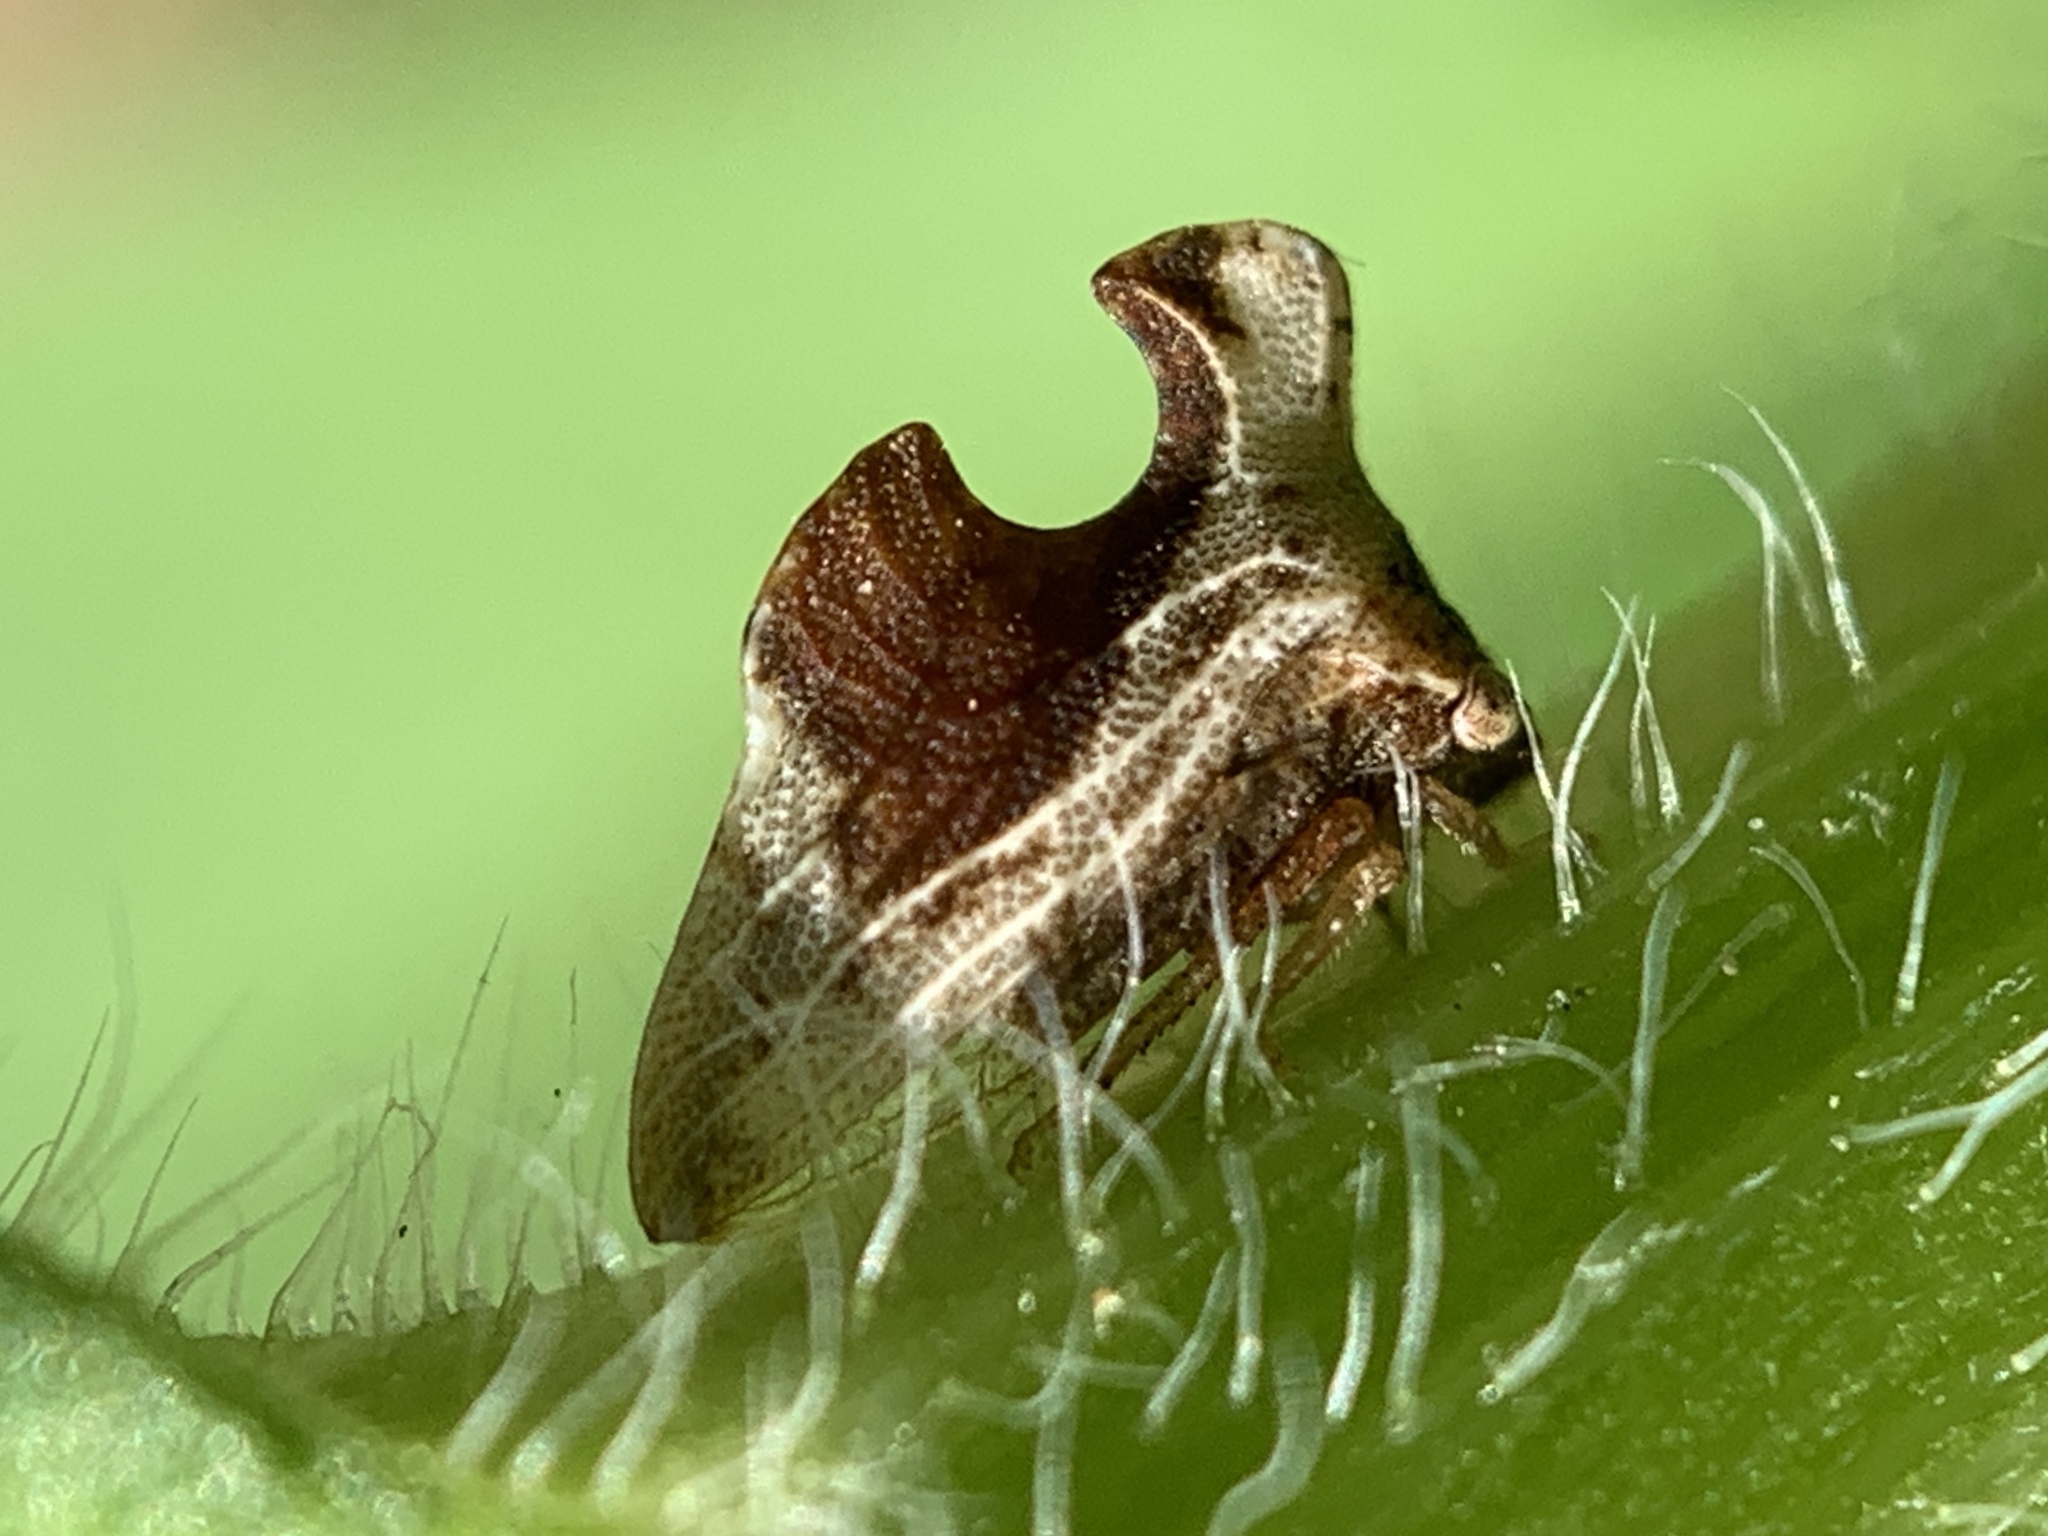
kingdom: Animalia
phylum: Arthropoda
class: Insecta
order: Hemiptera
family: Membracidae
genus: Entylia
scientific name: Entylia carinata
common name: Keeled treehopper
